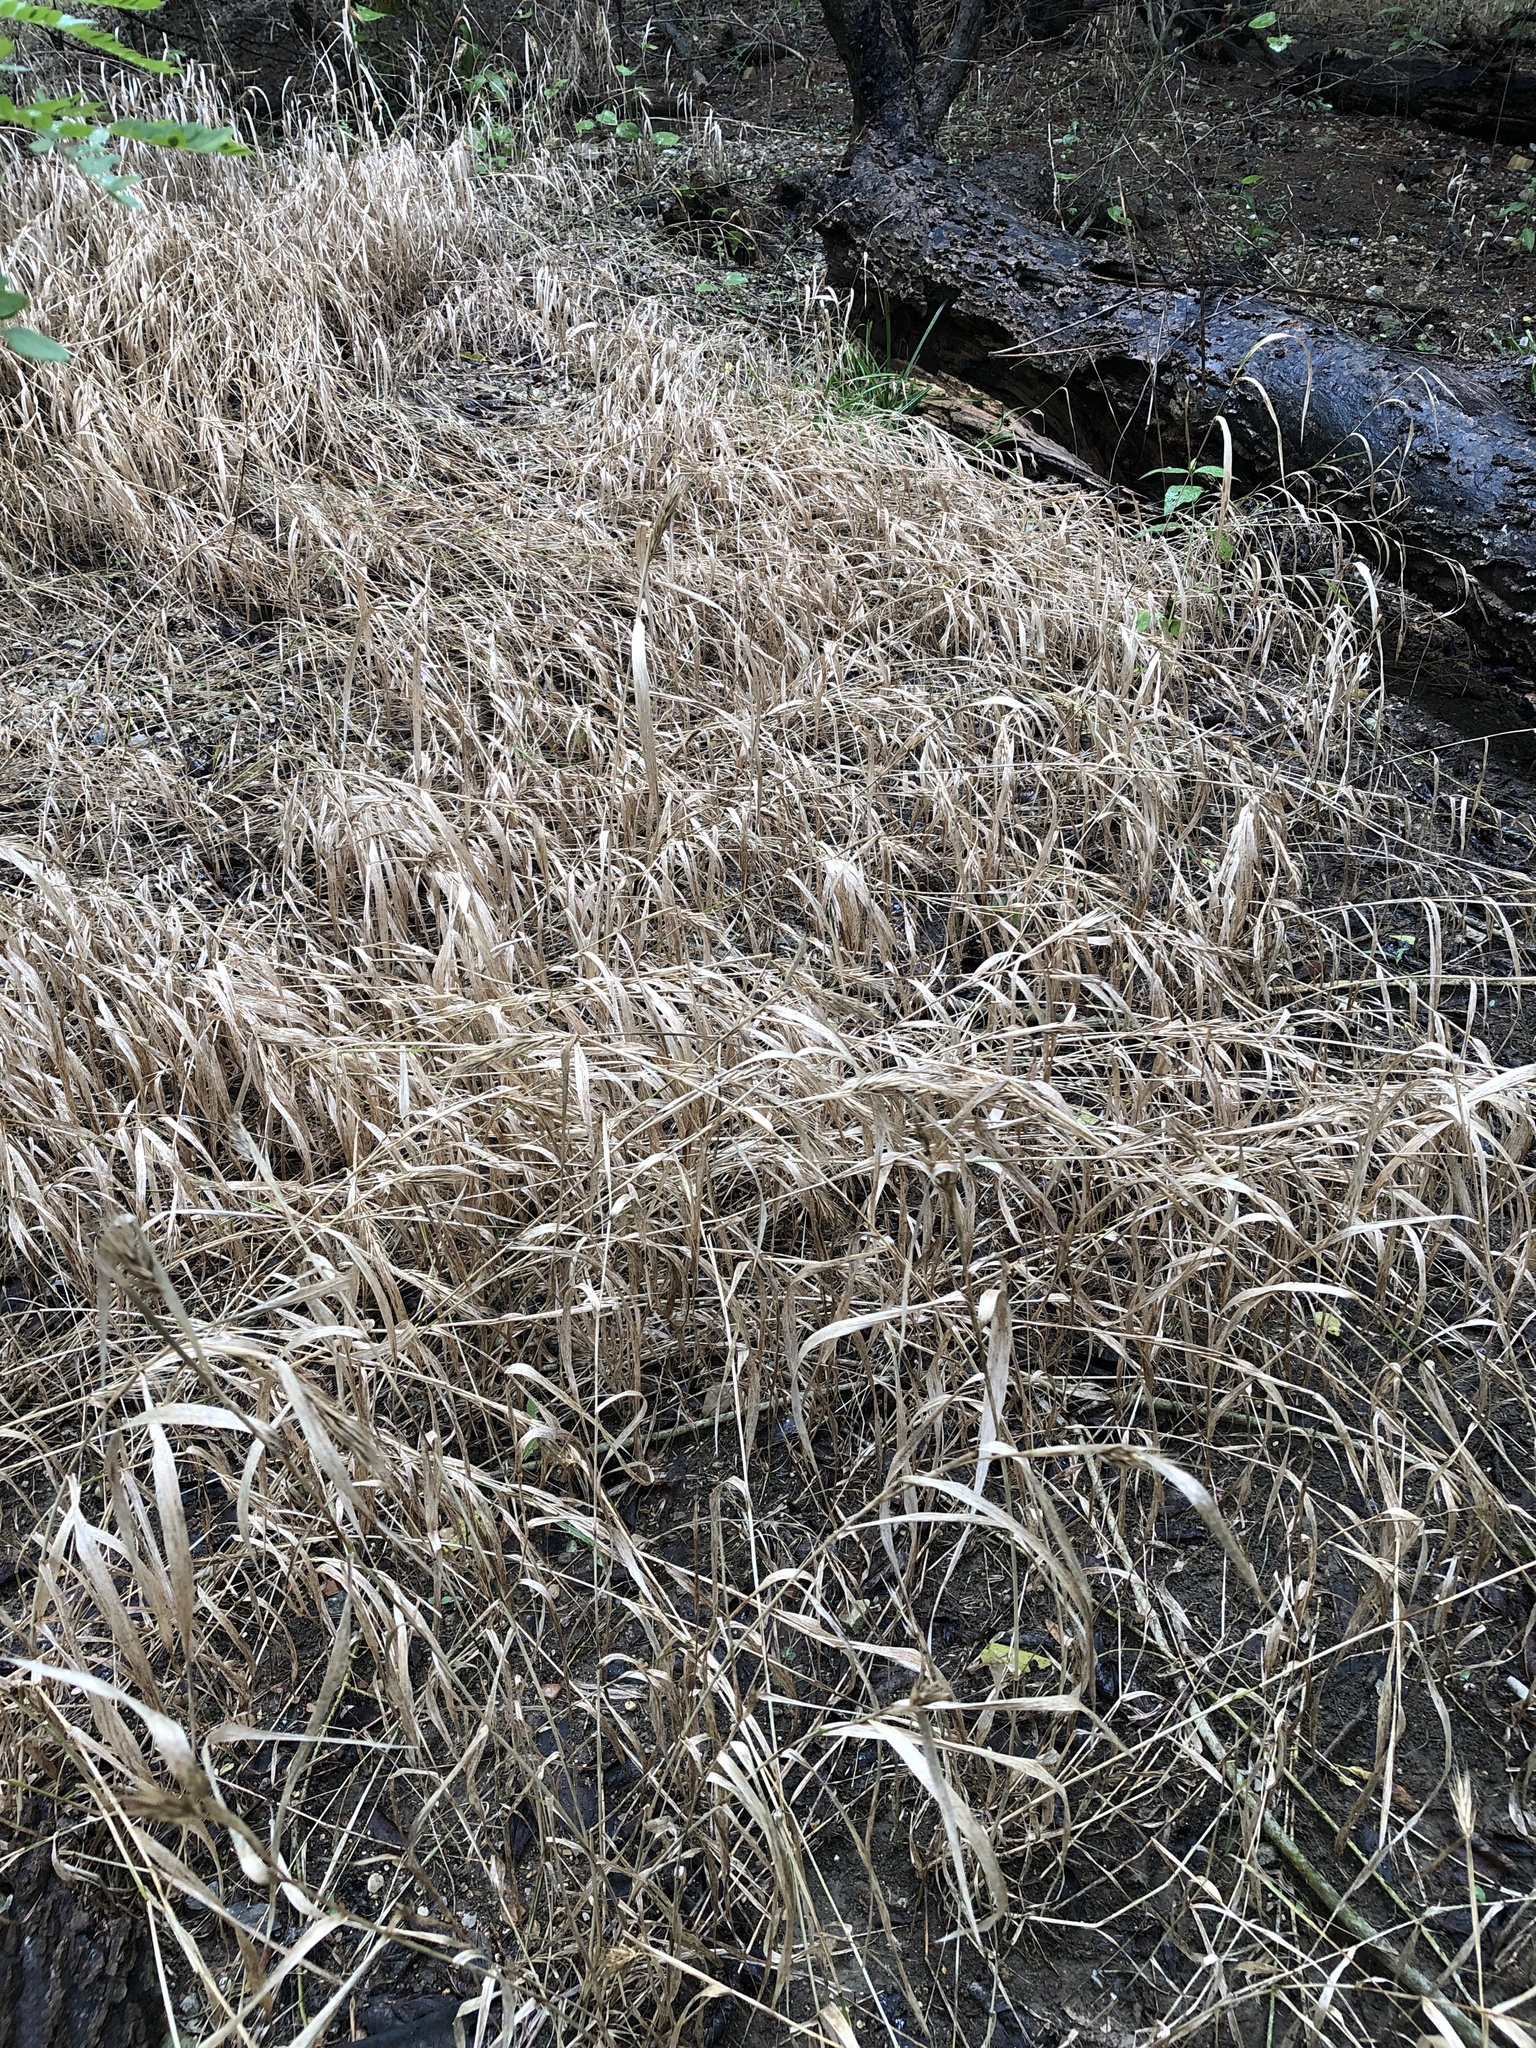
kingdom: Plantae
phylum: Tracheophyta
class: Liliopsida
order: Poales
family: Poaceae
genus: Elymus
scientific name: Elymus virginicus
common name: Common eastern wildrye
